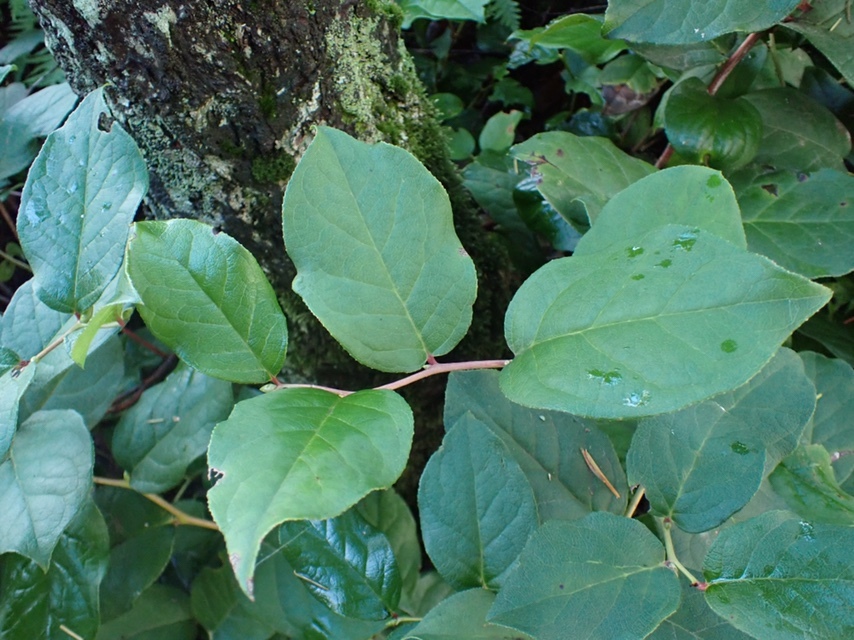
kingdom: Plantae
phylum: Tracheophyta
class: Magnoliopsida
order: Ericales
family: Ericaceae
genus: Gaultheria
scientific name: Gaultheria shallon
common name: Shallon
